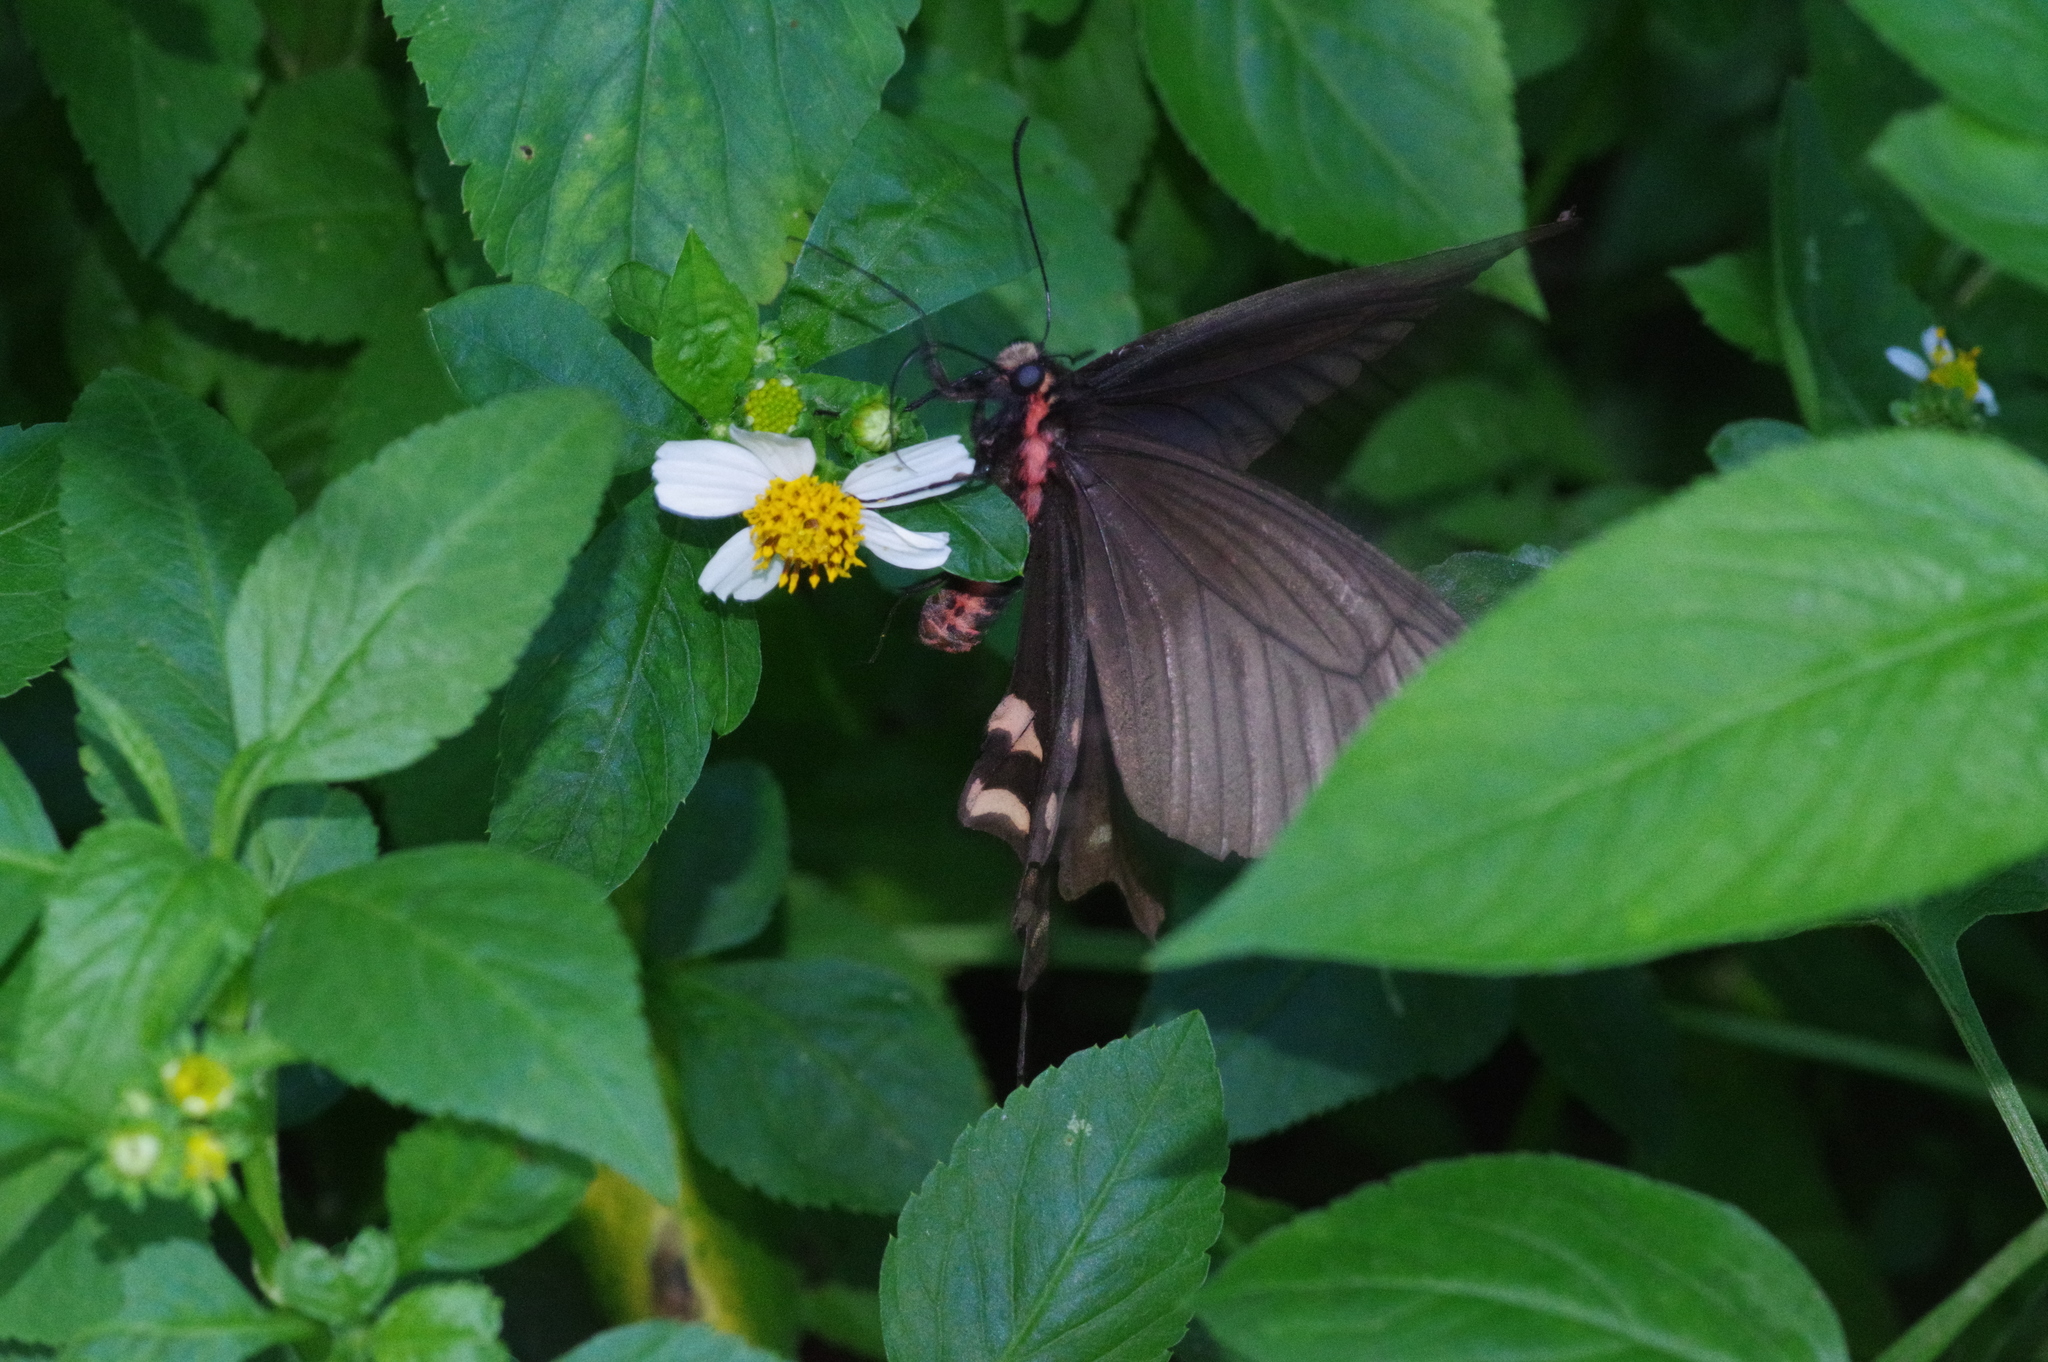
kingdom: Animalia
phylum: Arthropoda
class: Insecta
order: Lepidoptera
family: Papilionidae
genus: Byasa
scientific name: Byasa alcinous
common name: Chinese windmill
